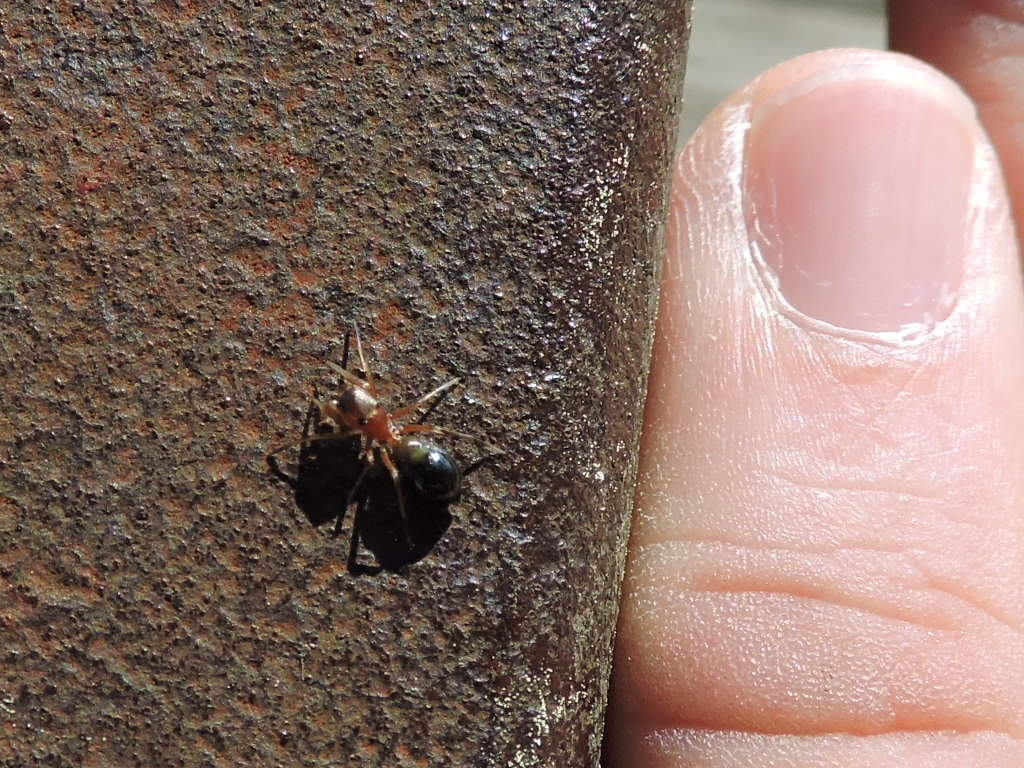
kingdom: Animalia
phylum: Arthropoda
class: Arachnida
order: Araneae
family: Salticidae
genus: Sarinda
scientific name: Sarinda hentzi
